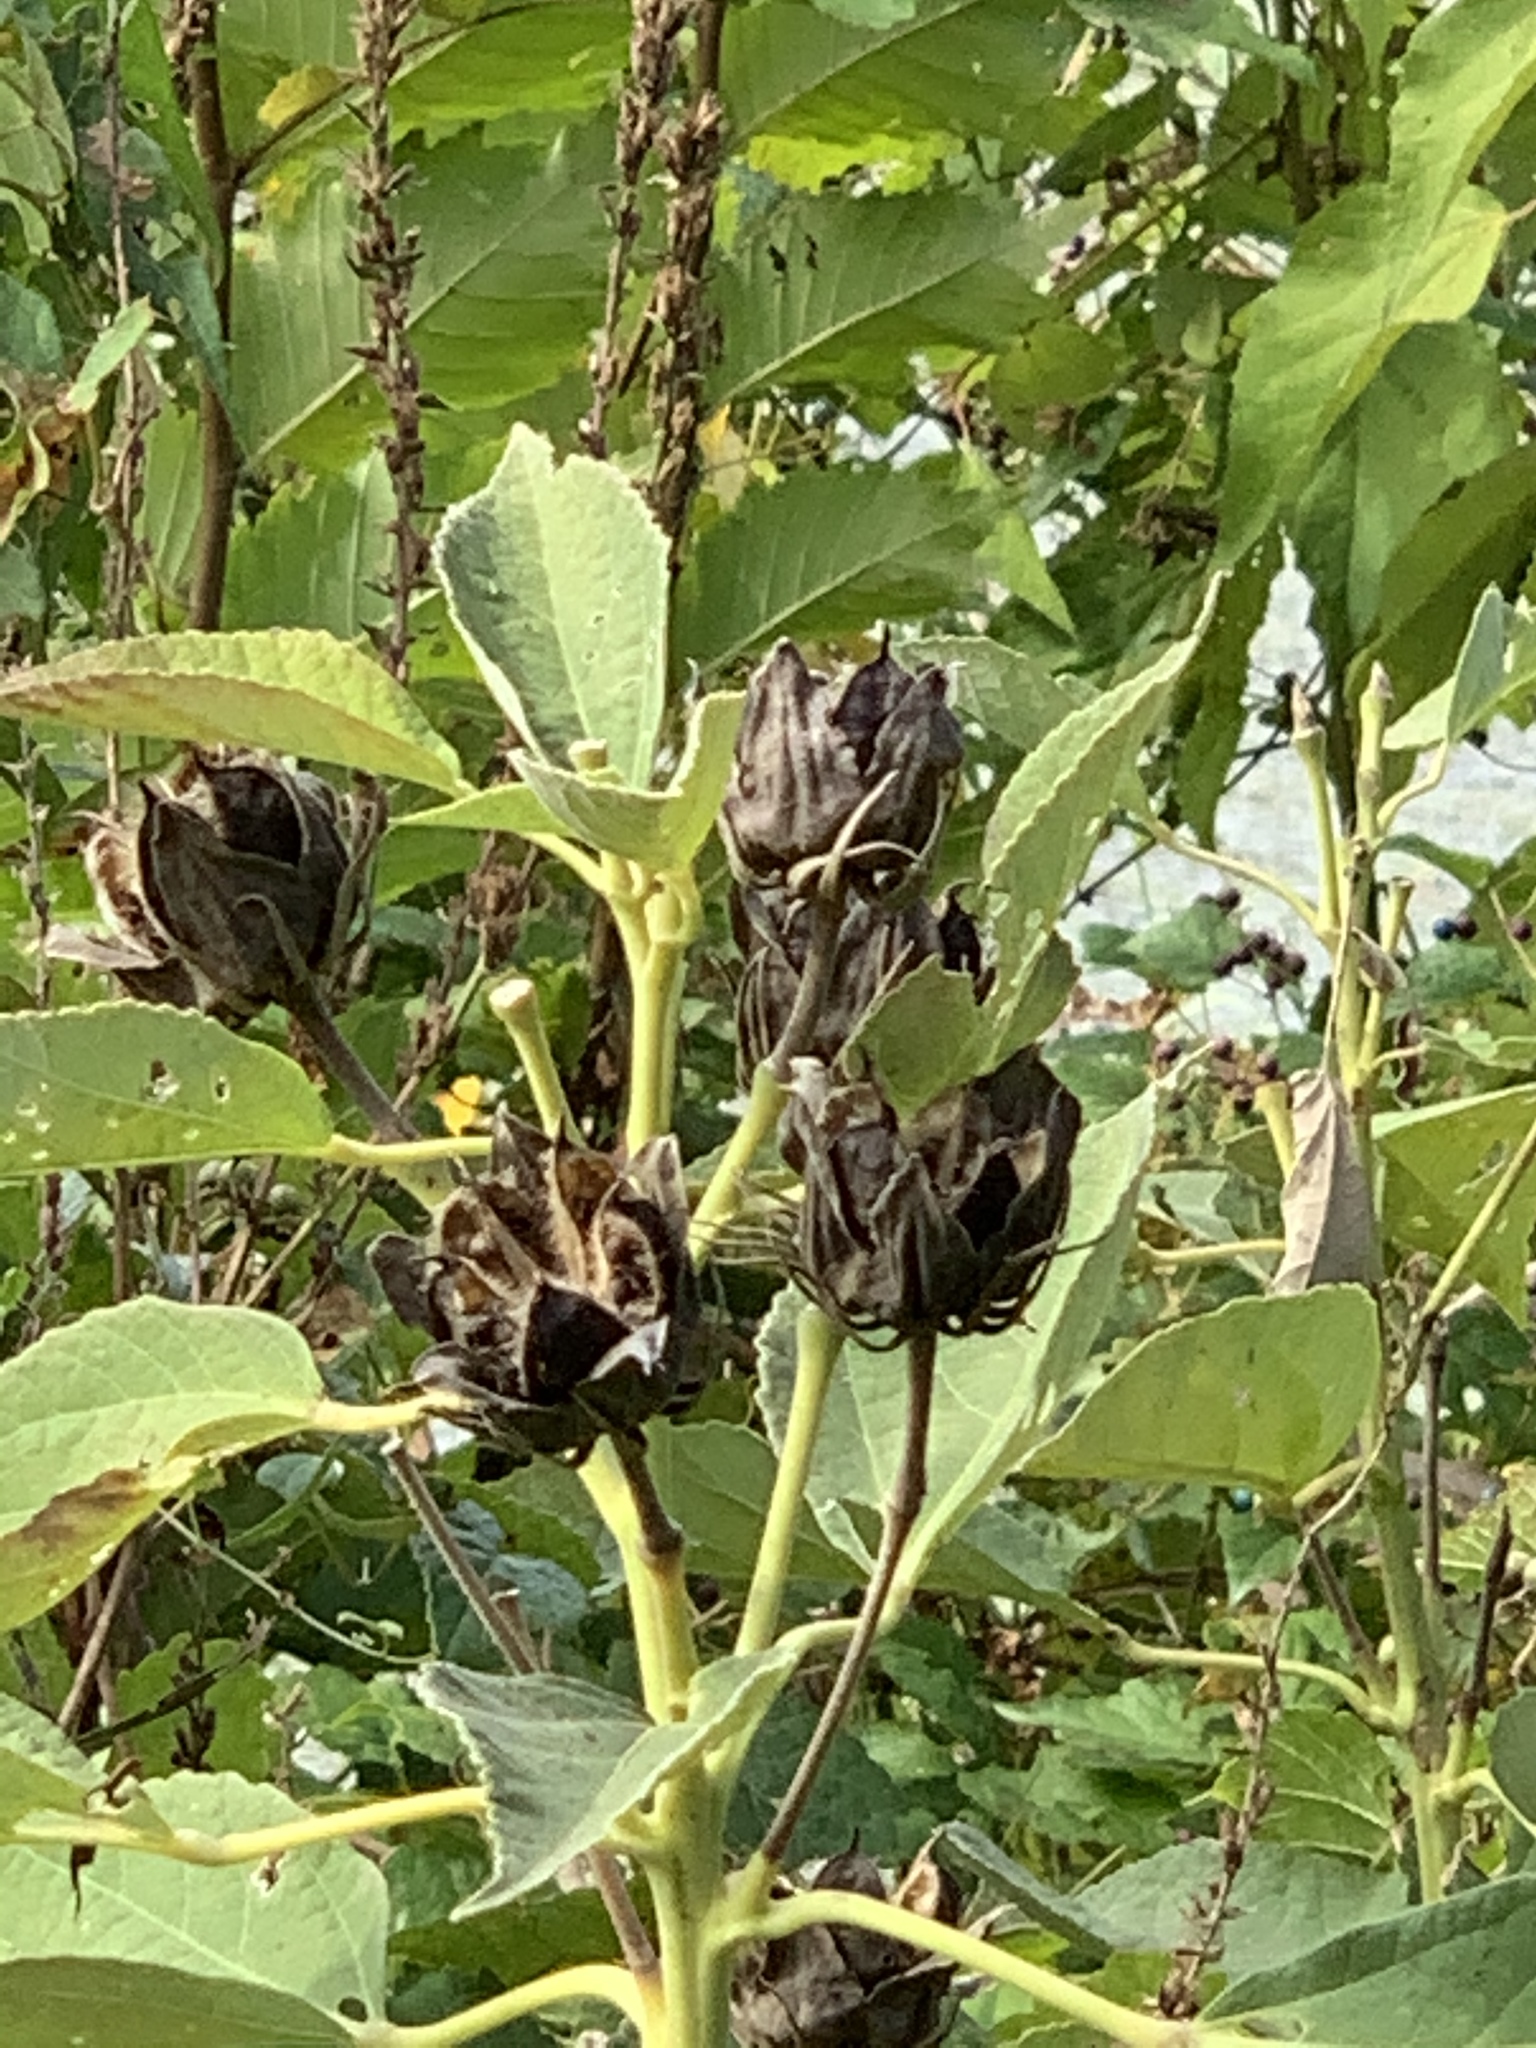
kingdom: Plantae
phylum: Tracheophyta
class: Magnoliopsida
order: Malvales
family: Malvaceae
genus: Hibiscus
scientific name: Hibiscus moscheutos
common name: Common rose-mallow
